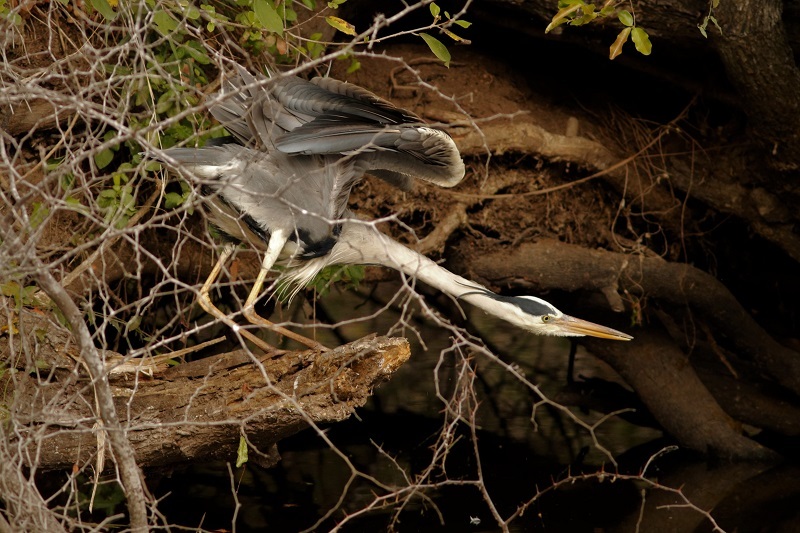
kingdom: Animalia
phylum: Chordata
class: Aves
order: Pelecaniformes
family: Ardeidae
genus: Ardea
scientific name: Ardea cinerea
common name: Grey heron
